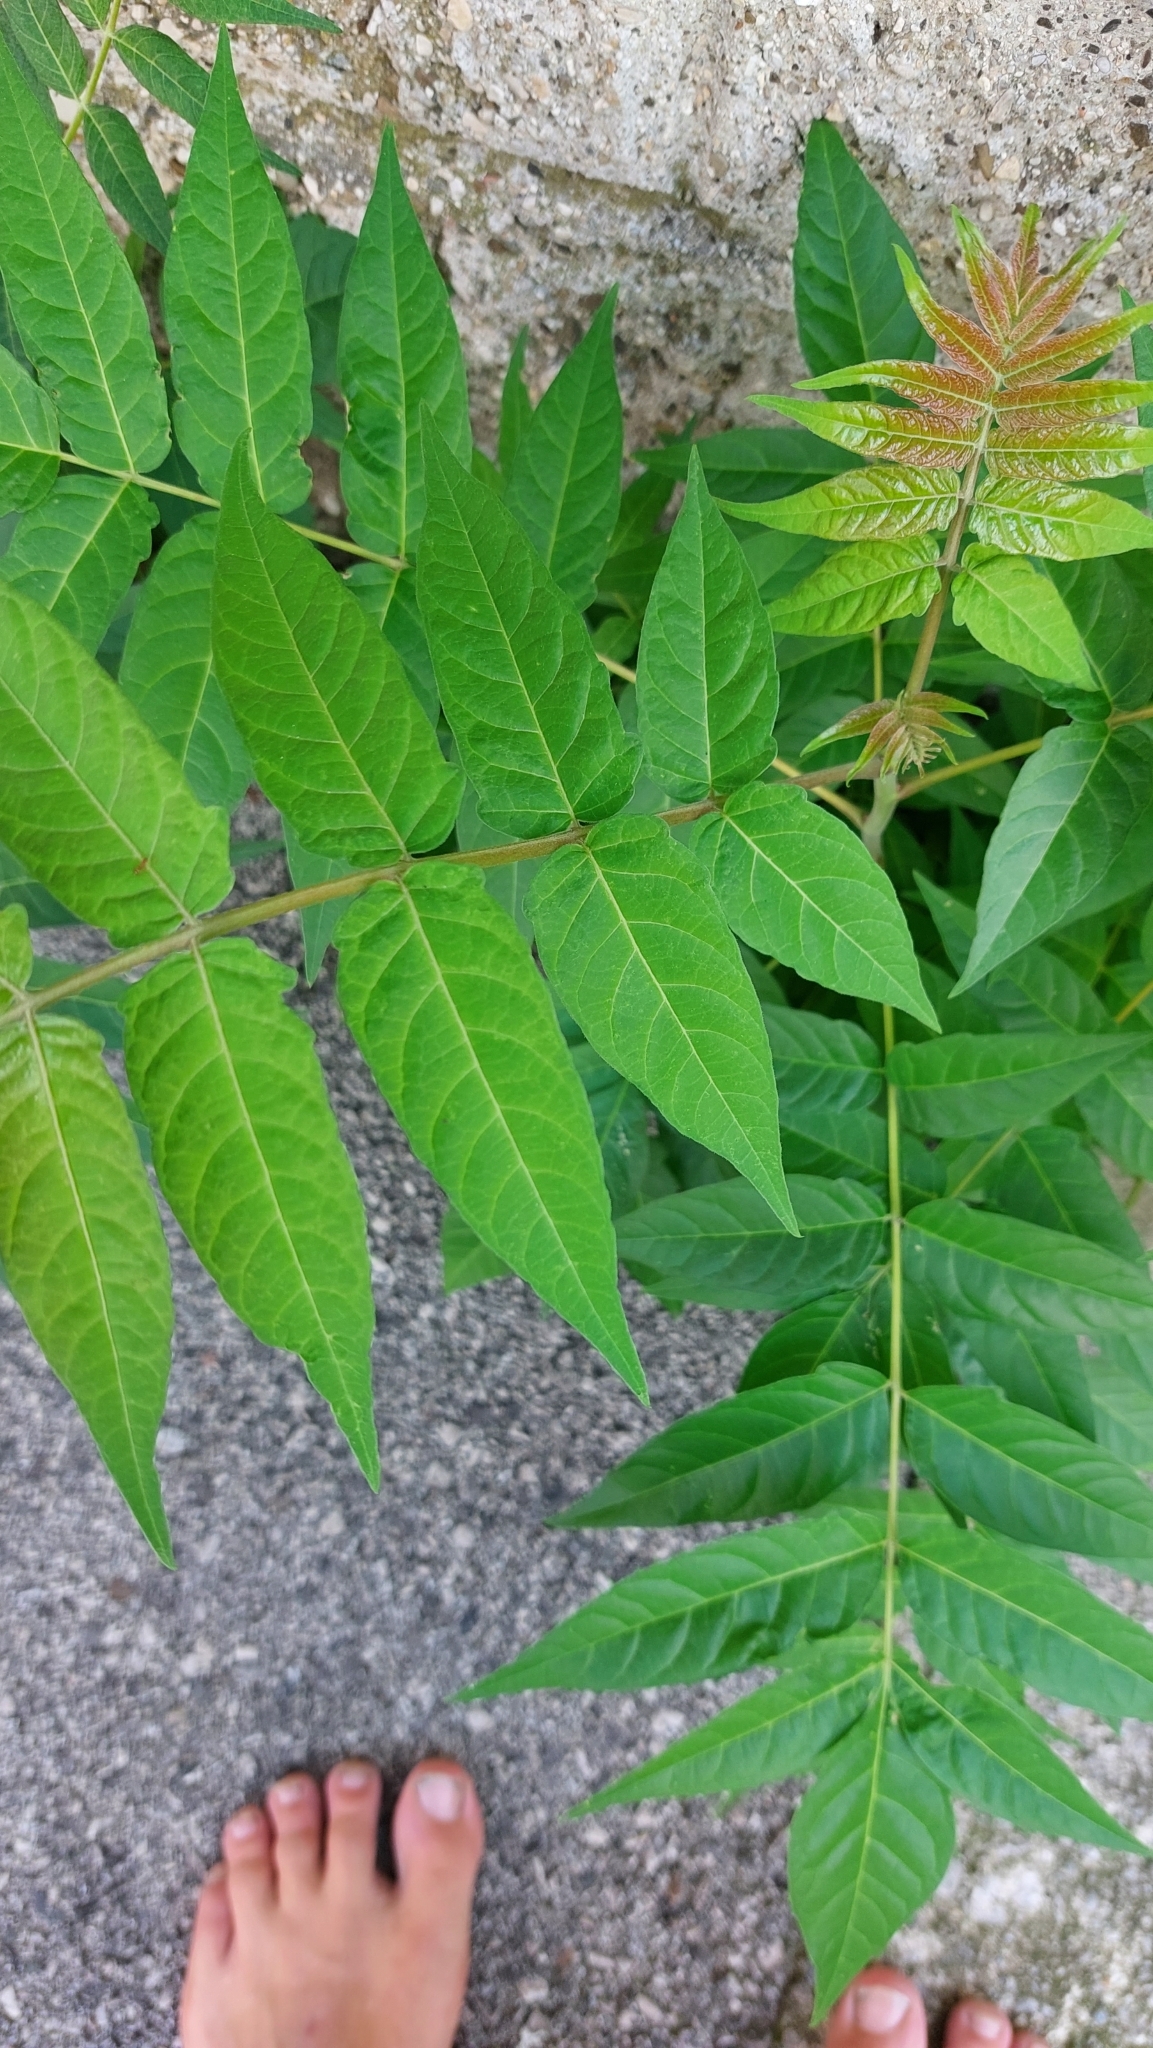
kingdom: Plantae
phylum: Tracheophyta
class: Magnoliopsida
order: Sapindales
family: Simaroubaceae
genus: Ailanthus
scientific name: Ailanthus altissima
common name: Tree-of-heaven
